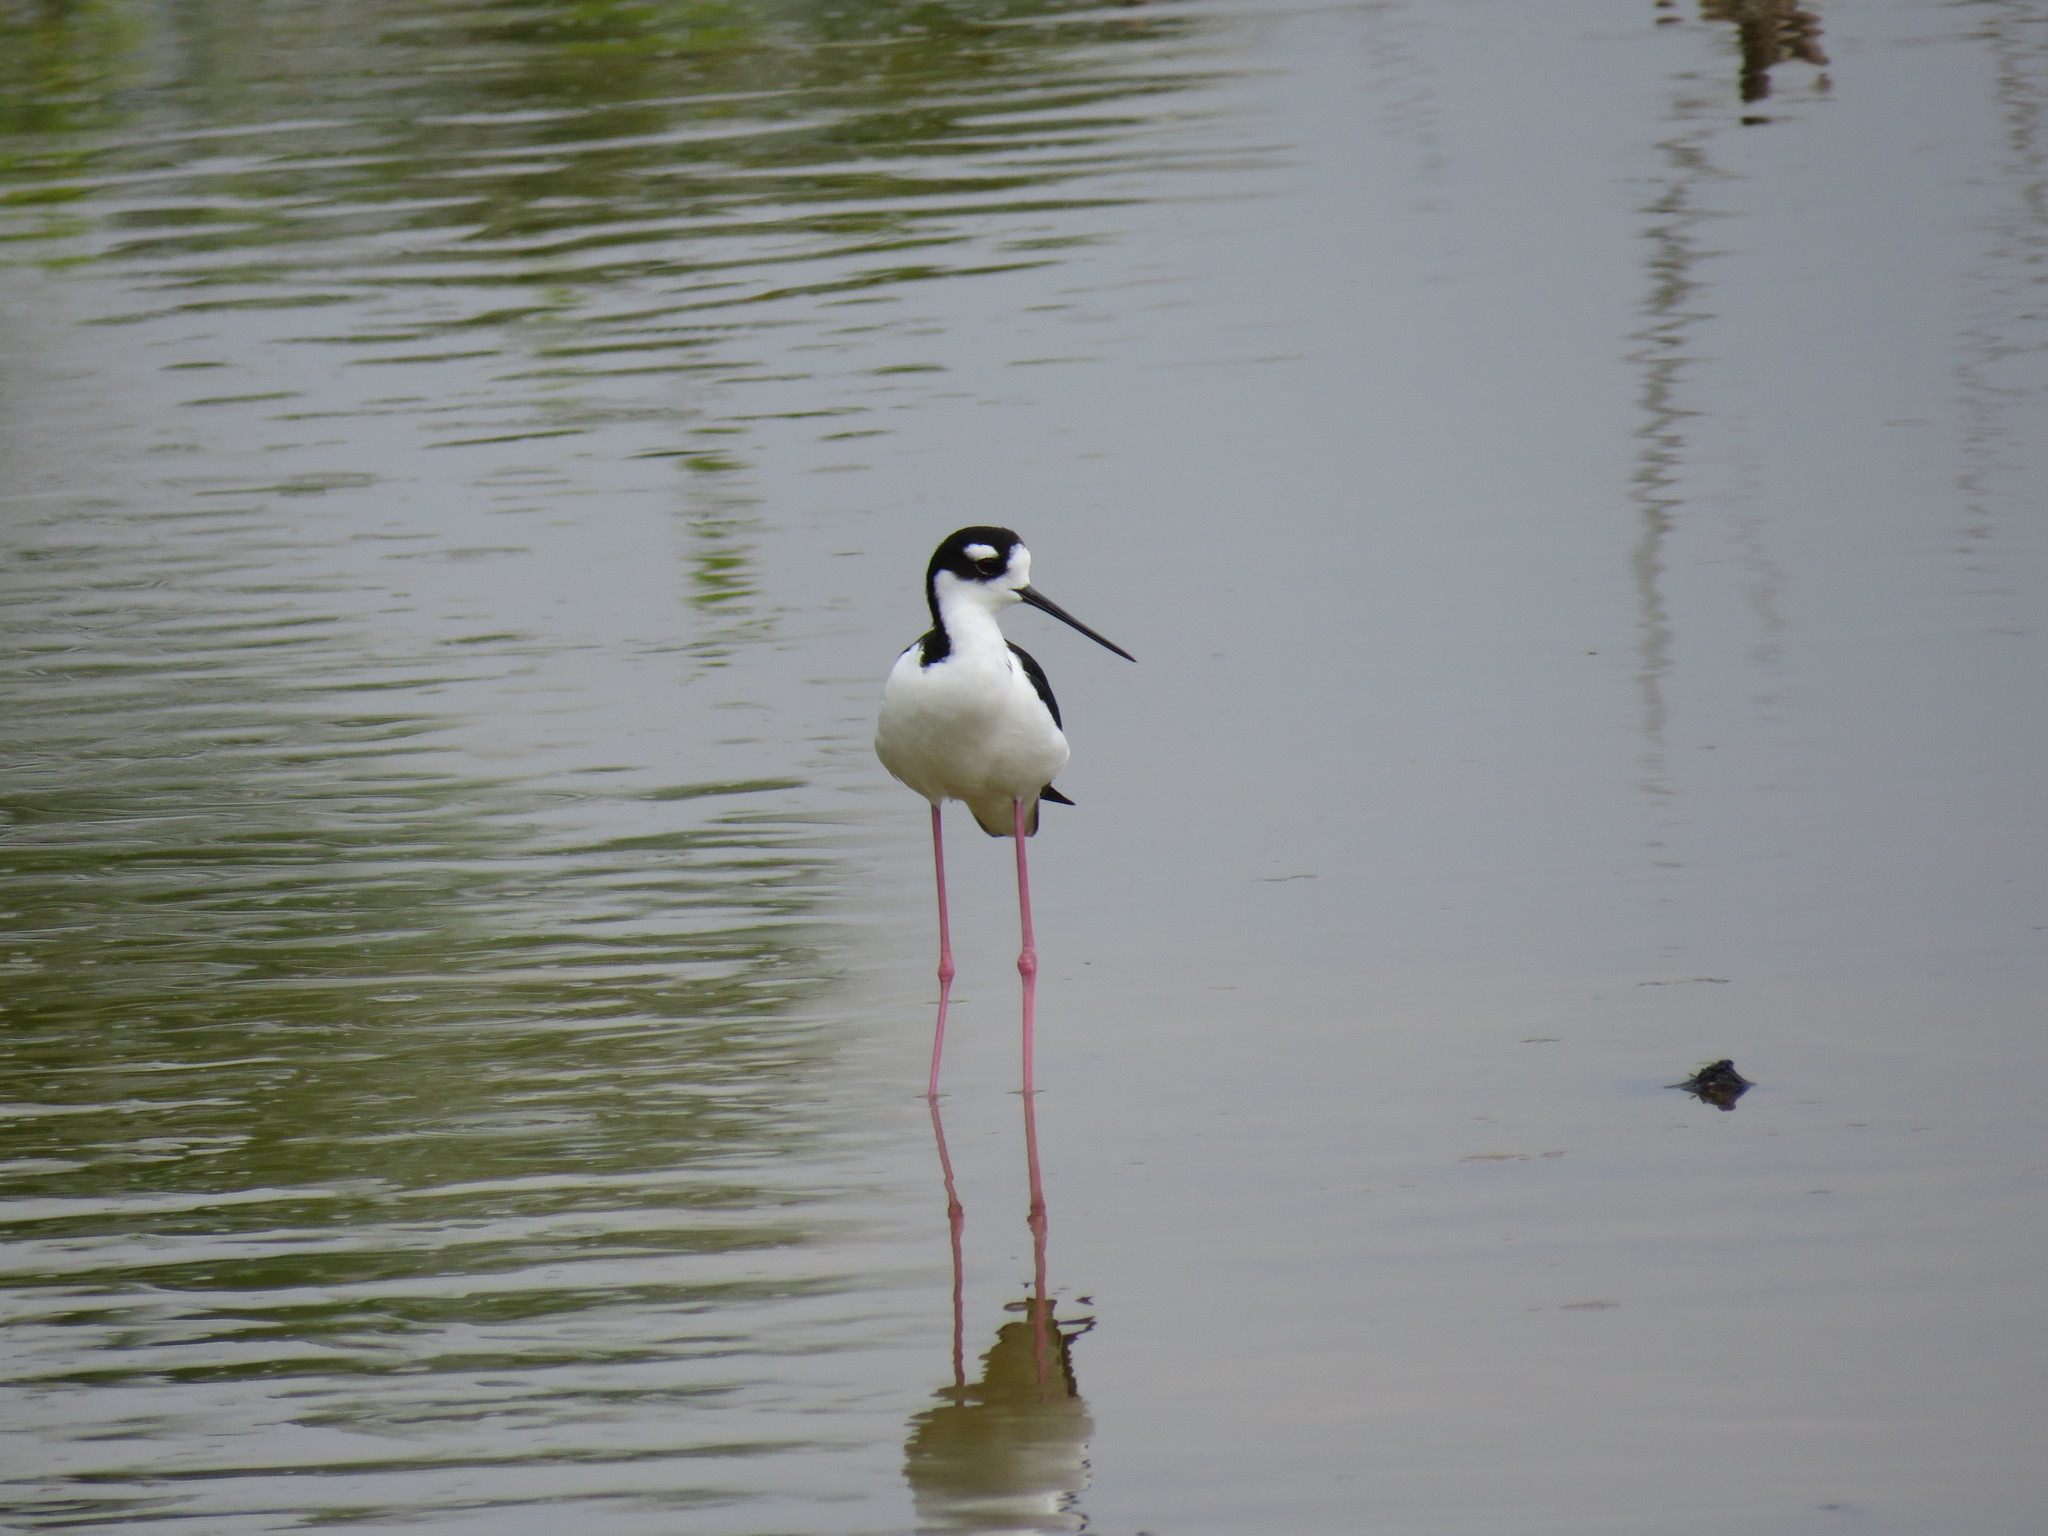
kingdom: Animalia
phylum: Chordata
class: Aves
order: Charadriiformes
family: Recurvirostridae
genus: Himantopus
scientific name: Himantopus mexicanus
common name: Black-necked stilt
